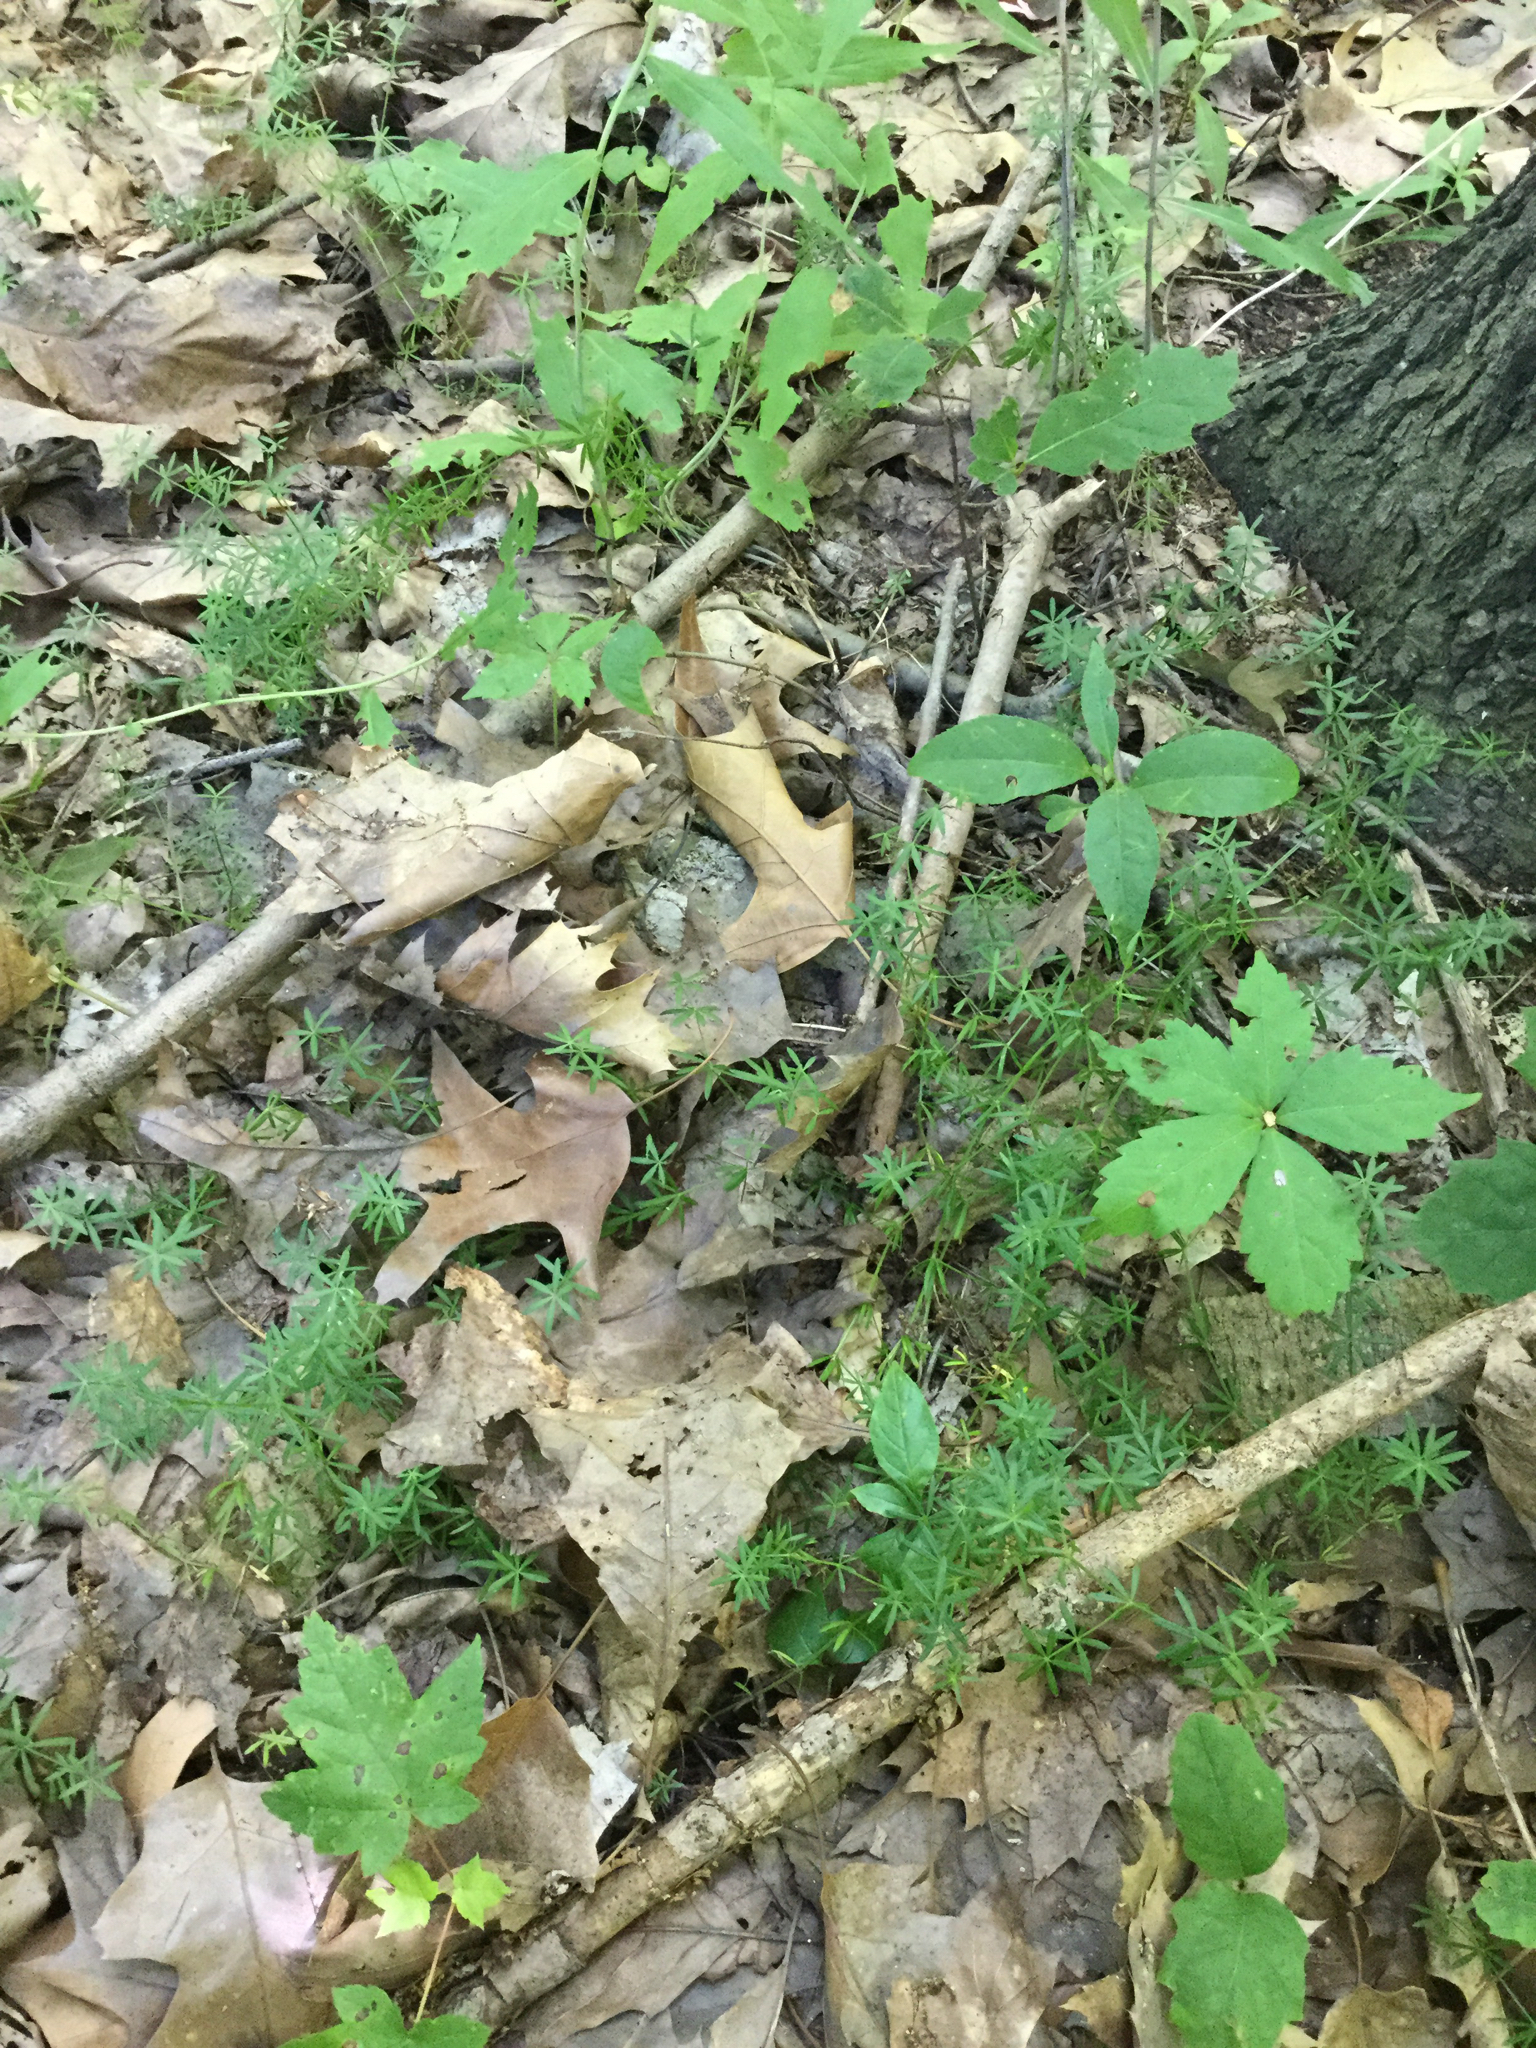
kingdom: Plantae
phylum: Tracheophyta
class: Magnoliopsida
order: Gentianales
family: Rubiaceae
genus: Galium
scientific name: Galium concinnum
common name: Shining bedstraw
